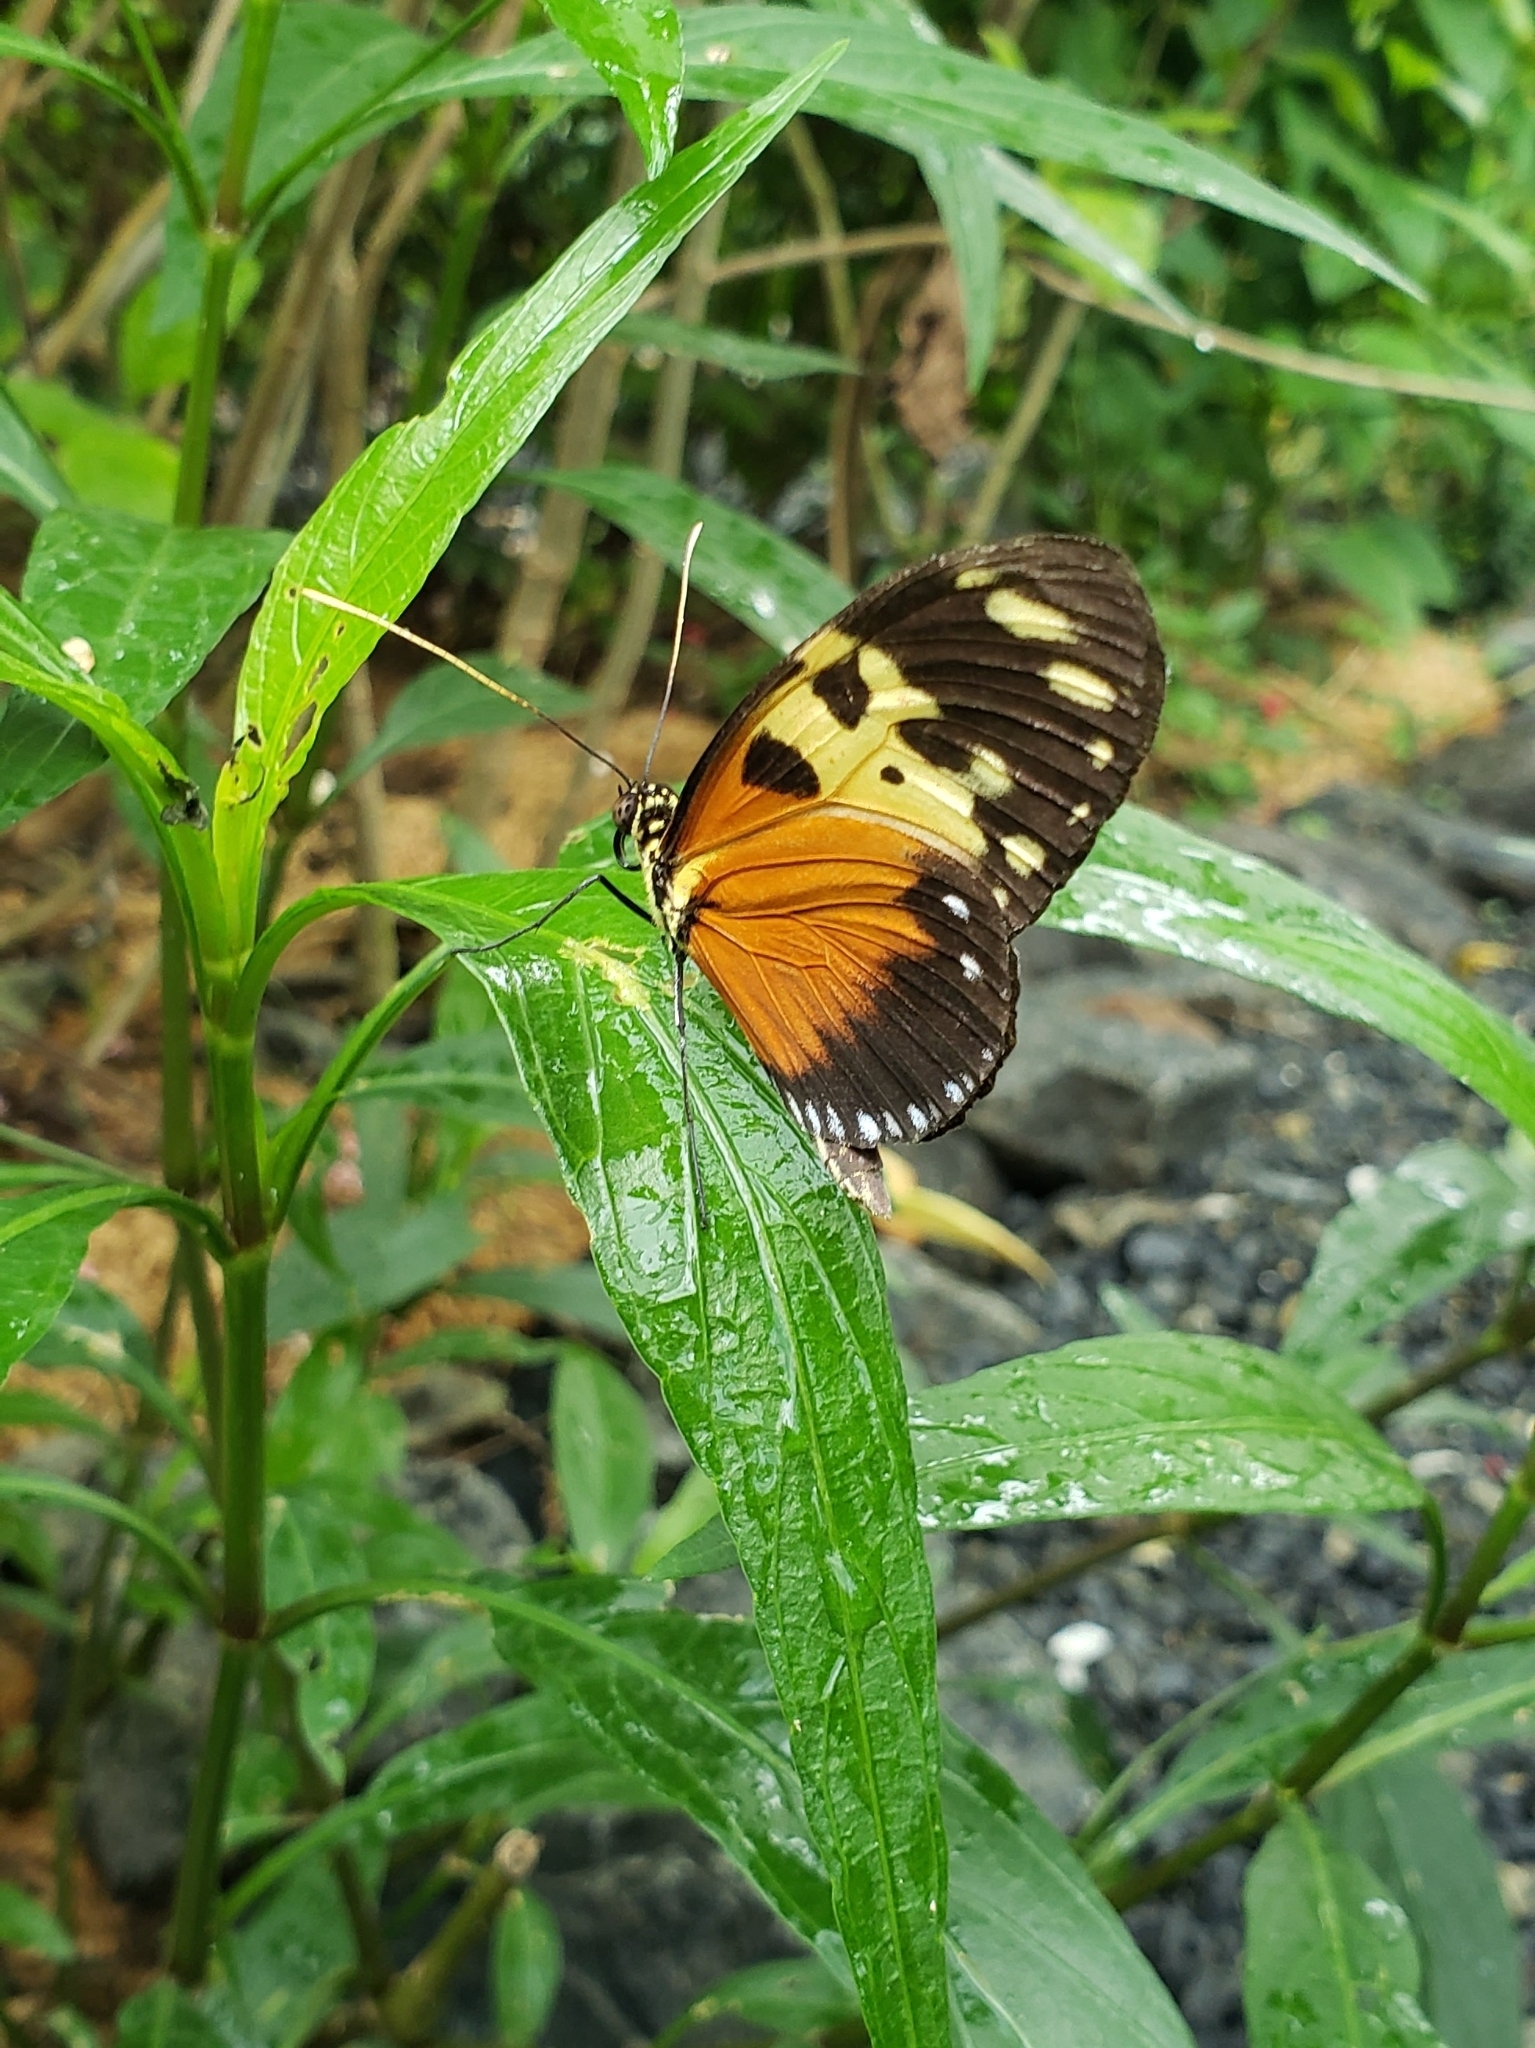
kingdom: Animalia
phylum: Arthropoda
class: Insecta
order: Lepidoptera
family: Nymphalidae
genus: Heliconius
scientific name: Heliconius hecale
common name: Tiger longwing
